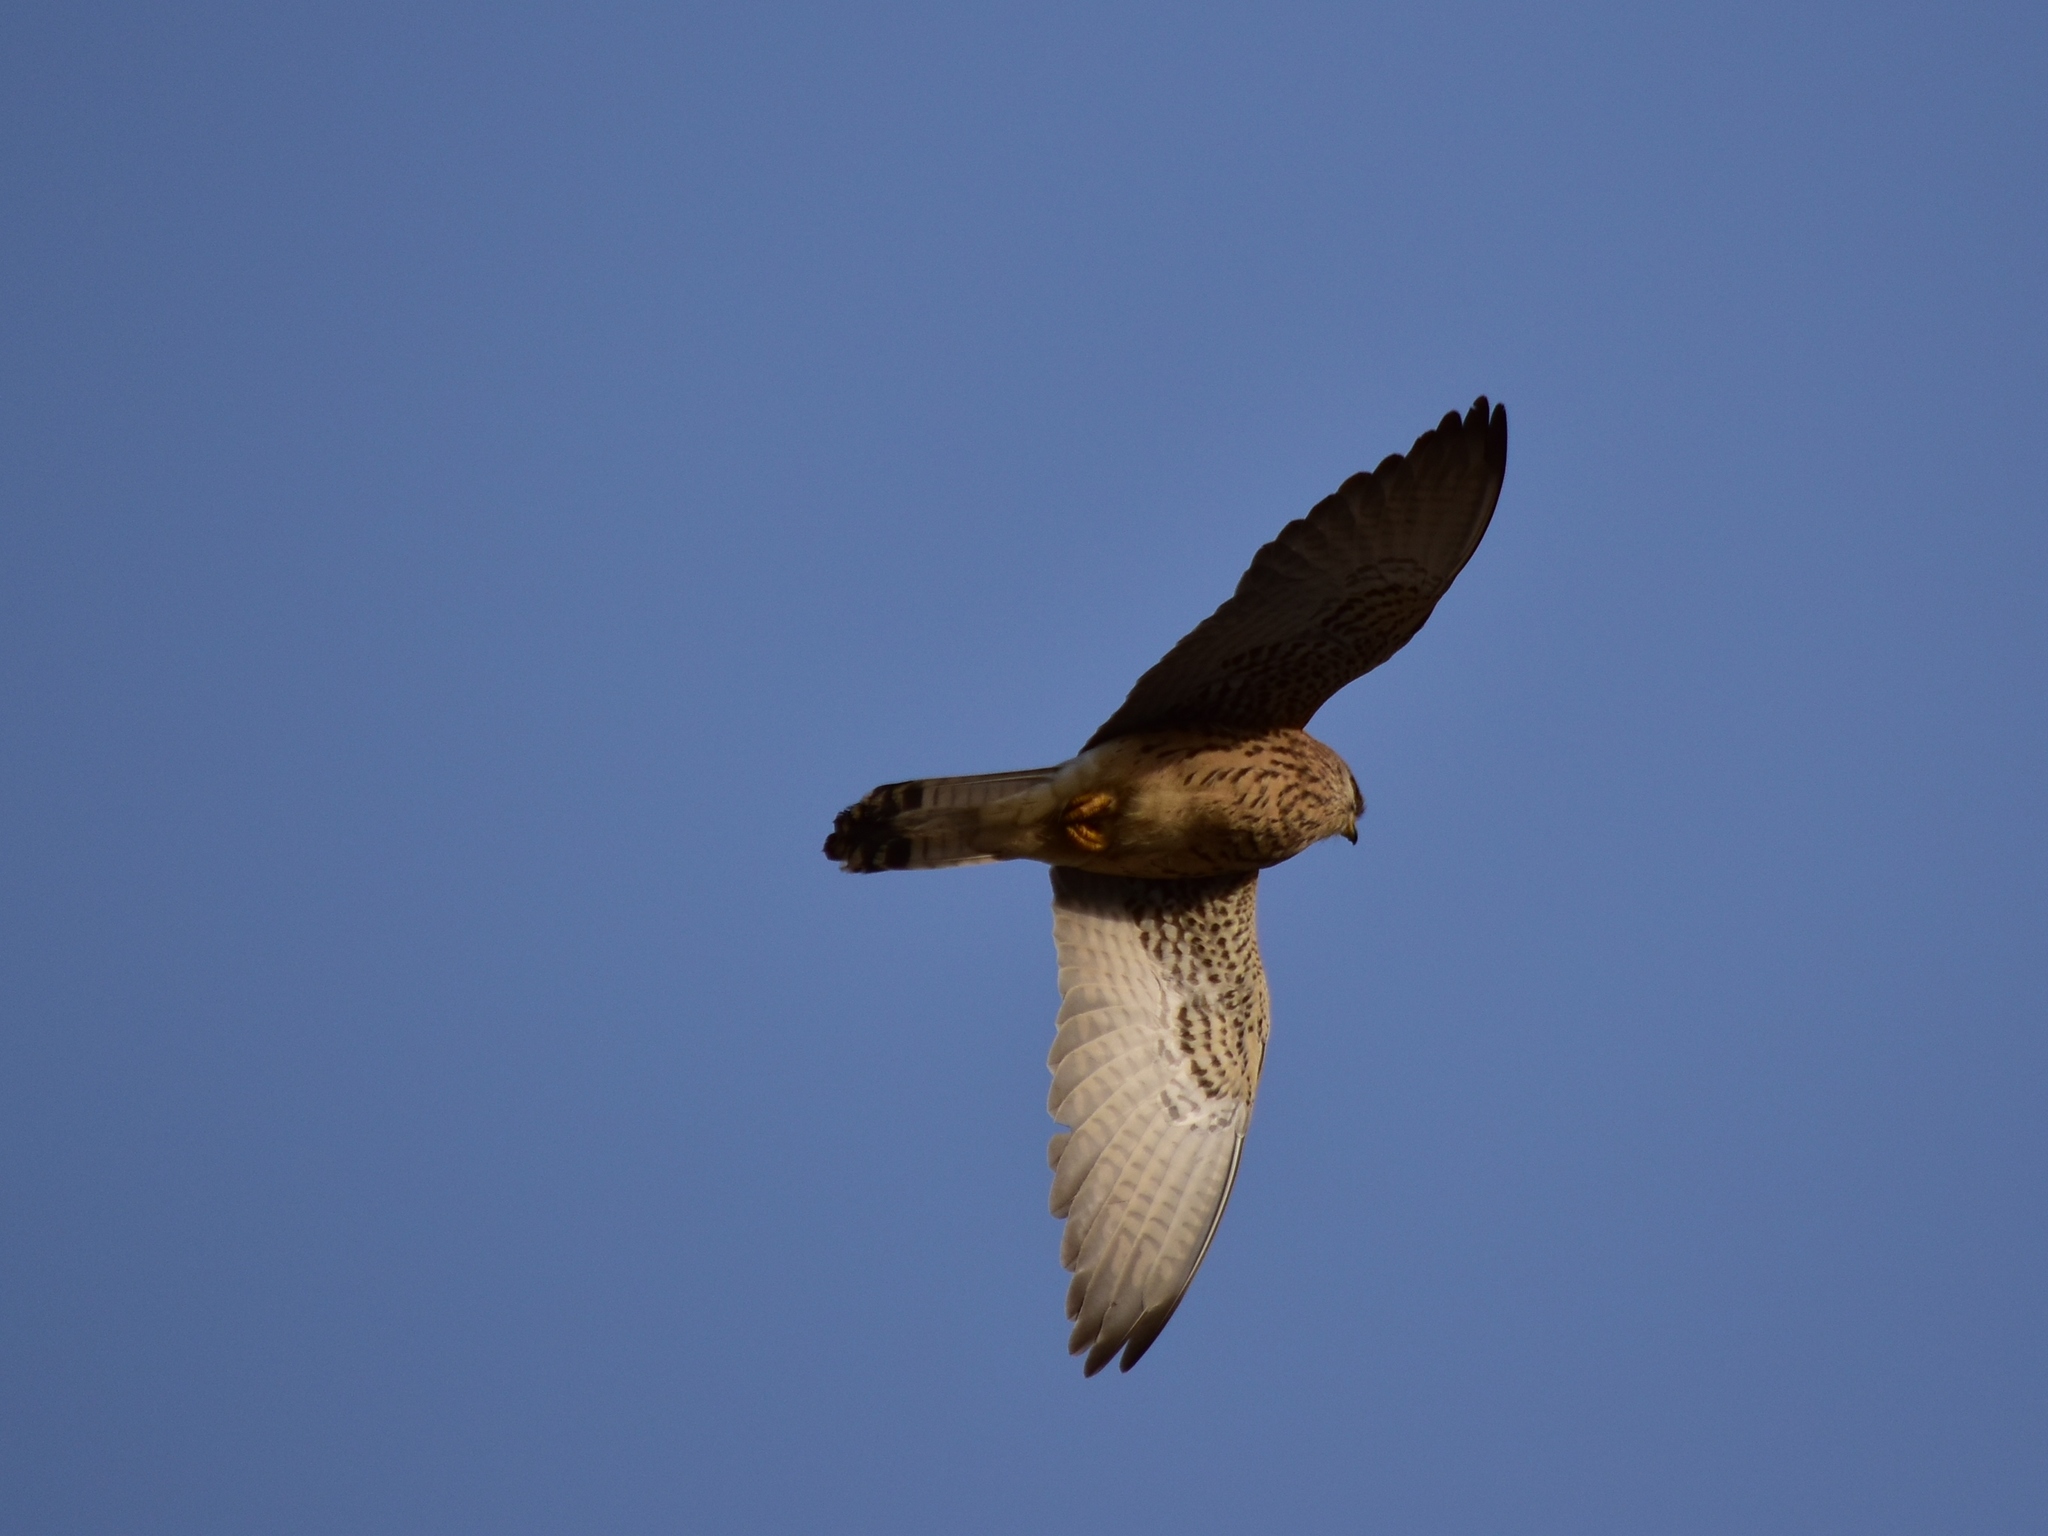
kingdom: Animalia
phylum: Chordata
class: Aves
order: Falconiformes
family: Falconidae
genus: Falco
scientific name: Falco naumanni
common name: Lesser kestrel
